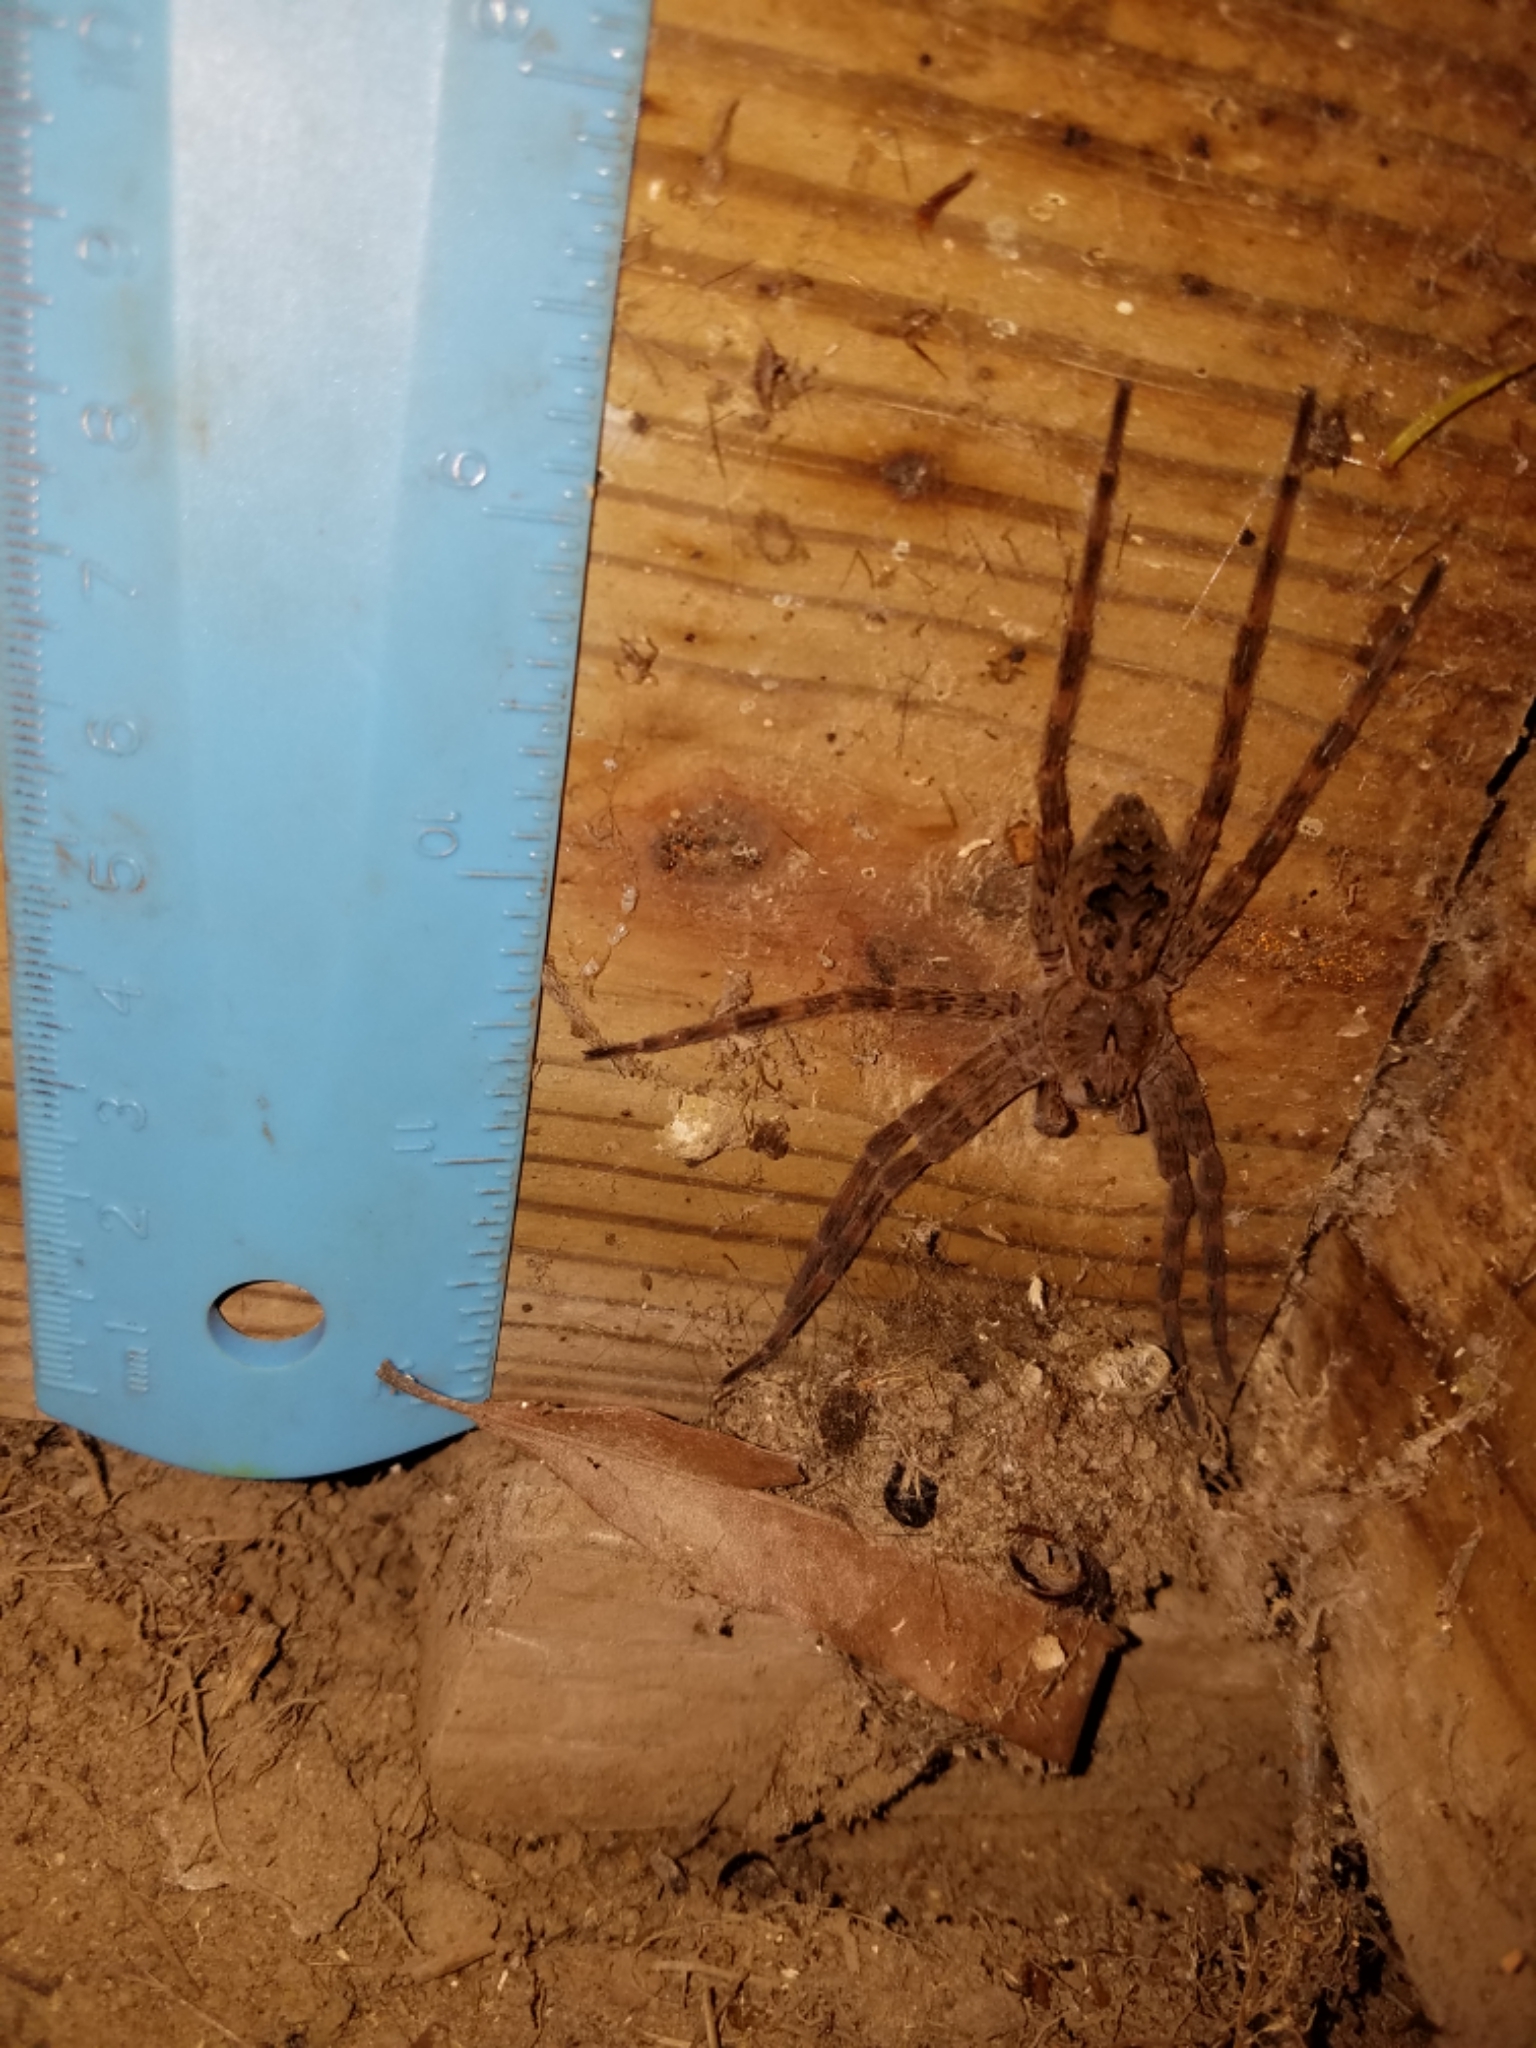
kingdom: Animalia
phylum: Arthropoda
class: Arachnida
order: Araneae
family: Pisauridae
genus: Dolomedes
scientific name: Dolomedes tenebrosus
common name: Dark fishing spider
